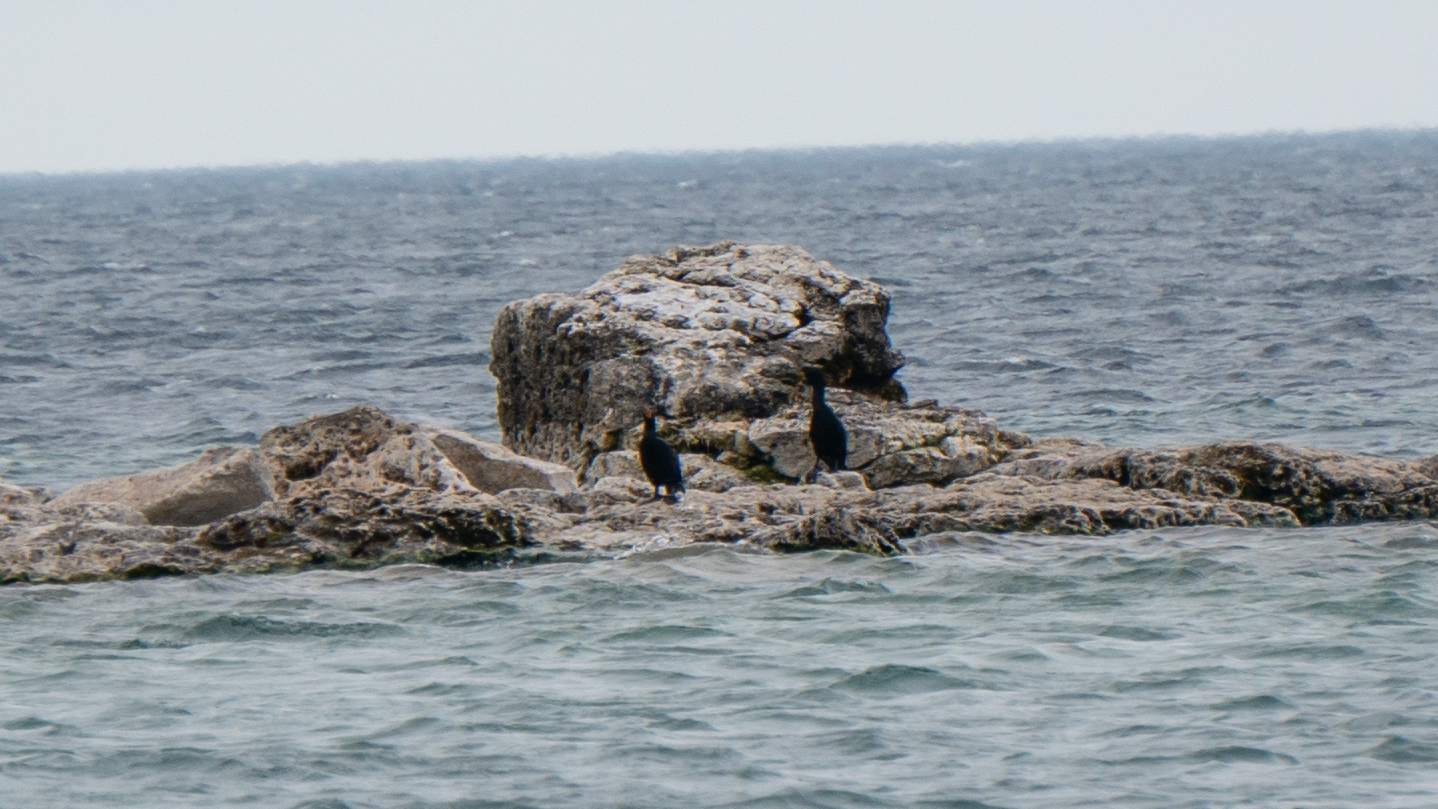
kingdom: Animalia
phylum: Chordata
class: Aves
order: Suliformes
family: Phalacrocoracidae
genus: Phalacrocorax
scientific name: Phalacrocorax auritus
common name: Double-crested cormorant
